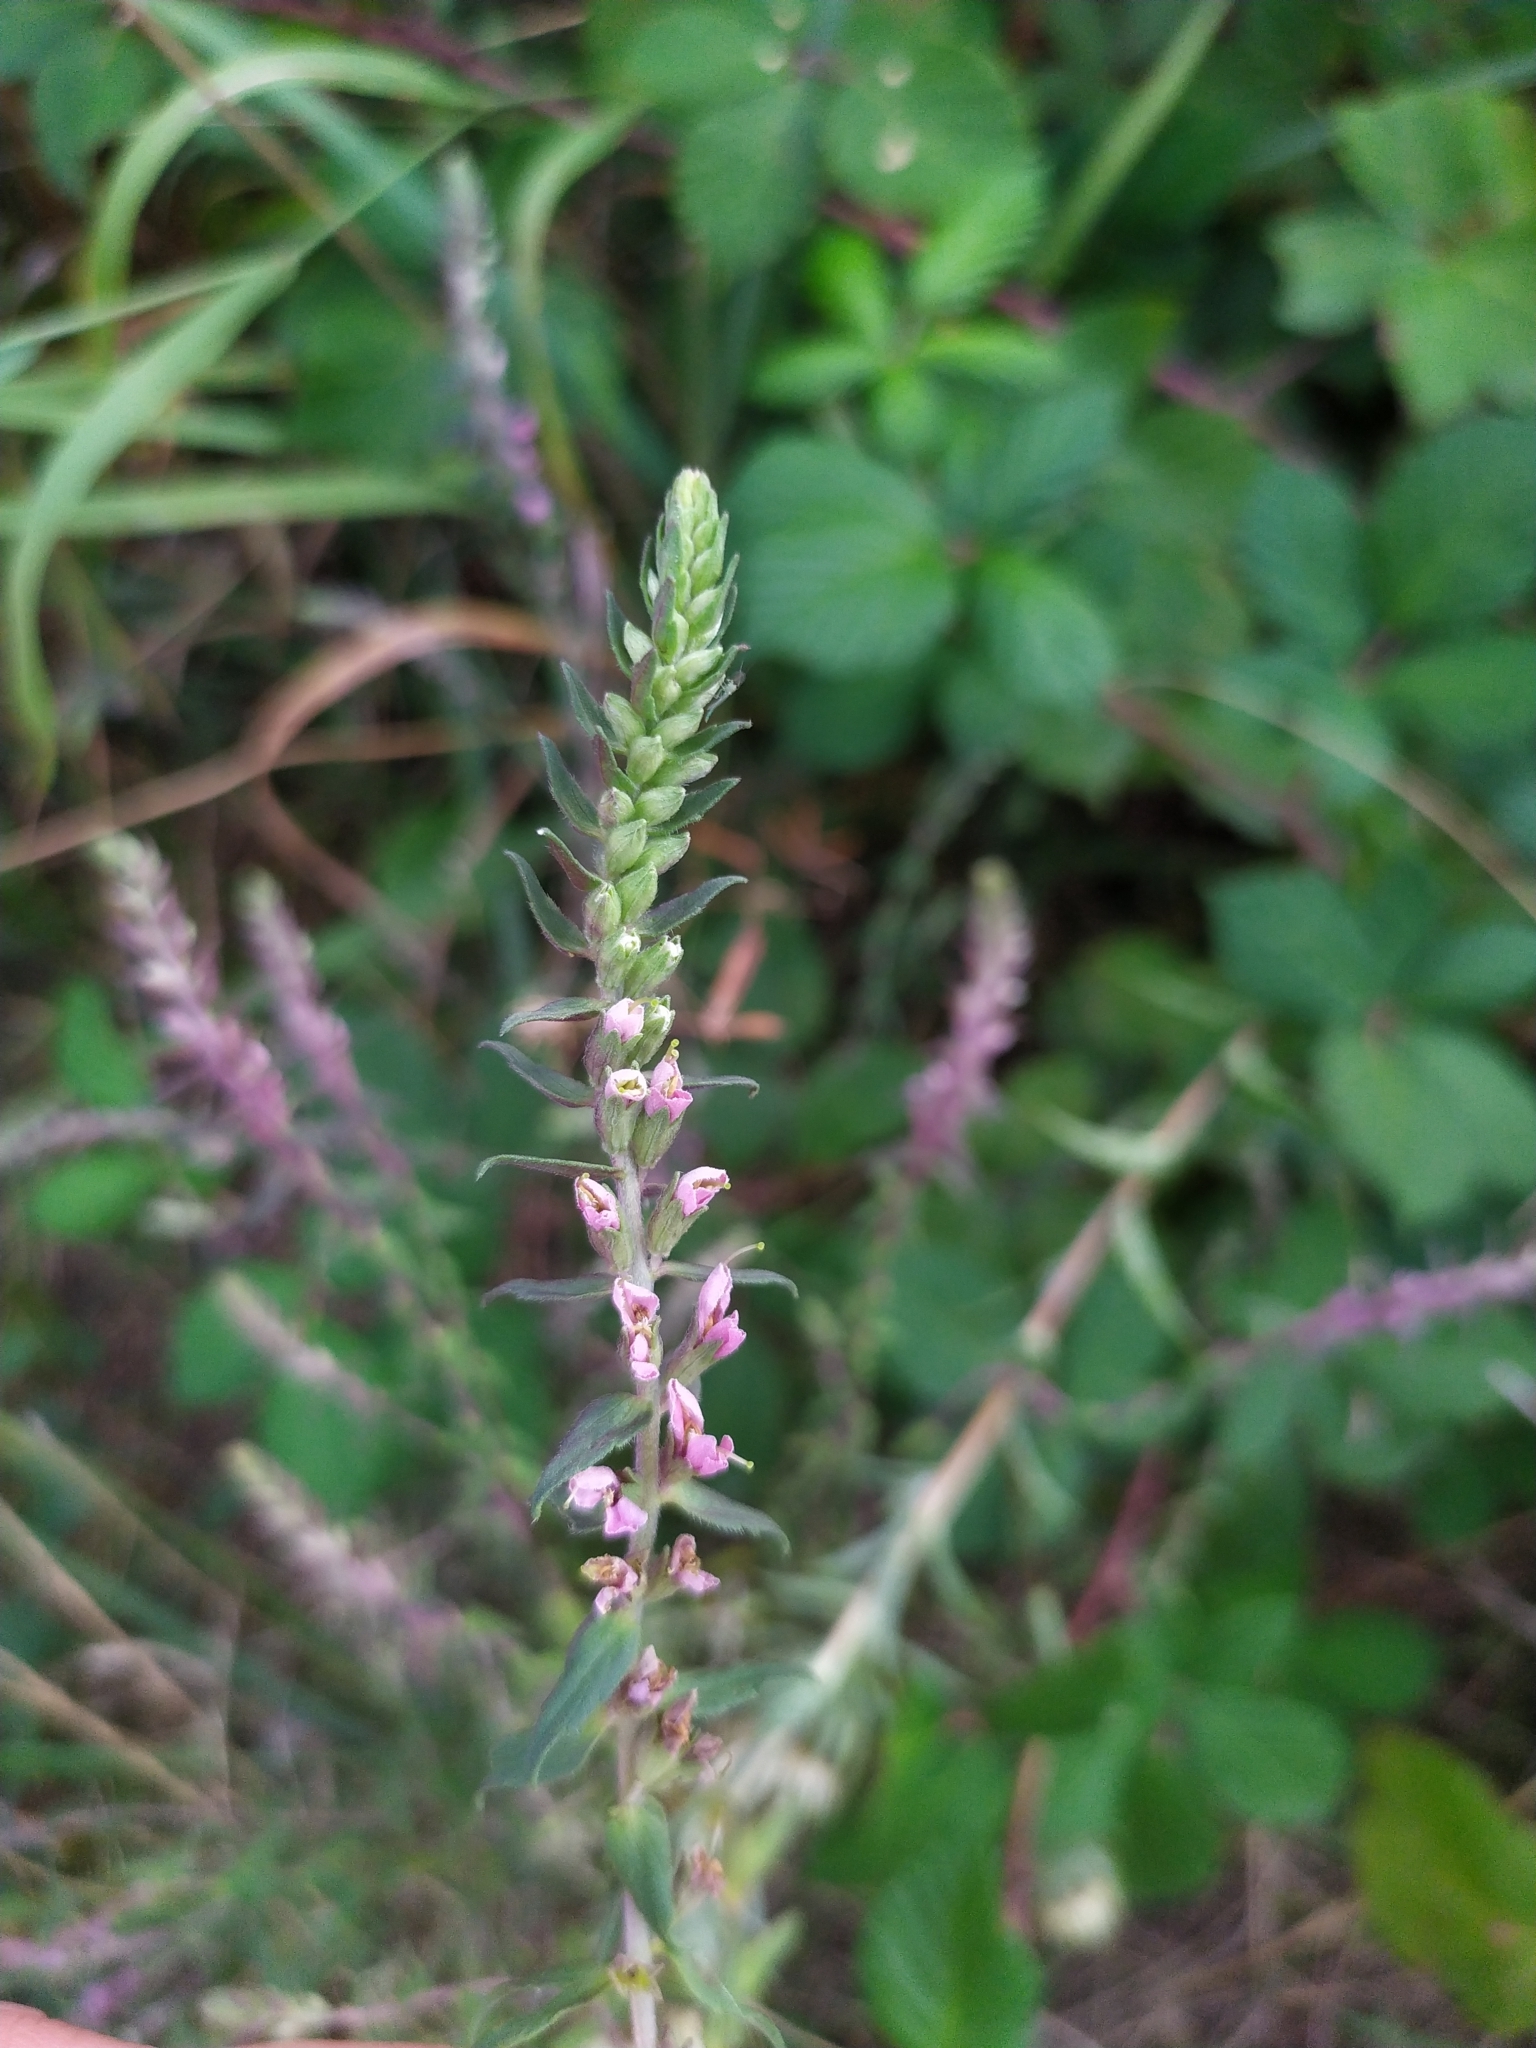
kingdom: Plantae
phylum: Tracheophyta
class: Magnoliopsida
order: Lamiales
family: Orobanchaceae
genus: Odontites
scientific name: Odontites vulgaris
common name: Broomrape
